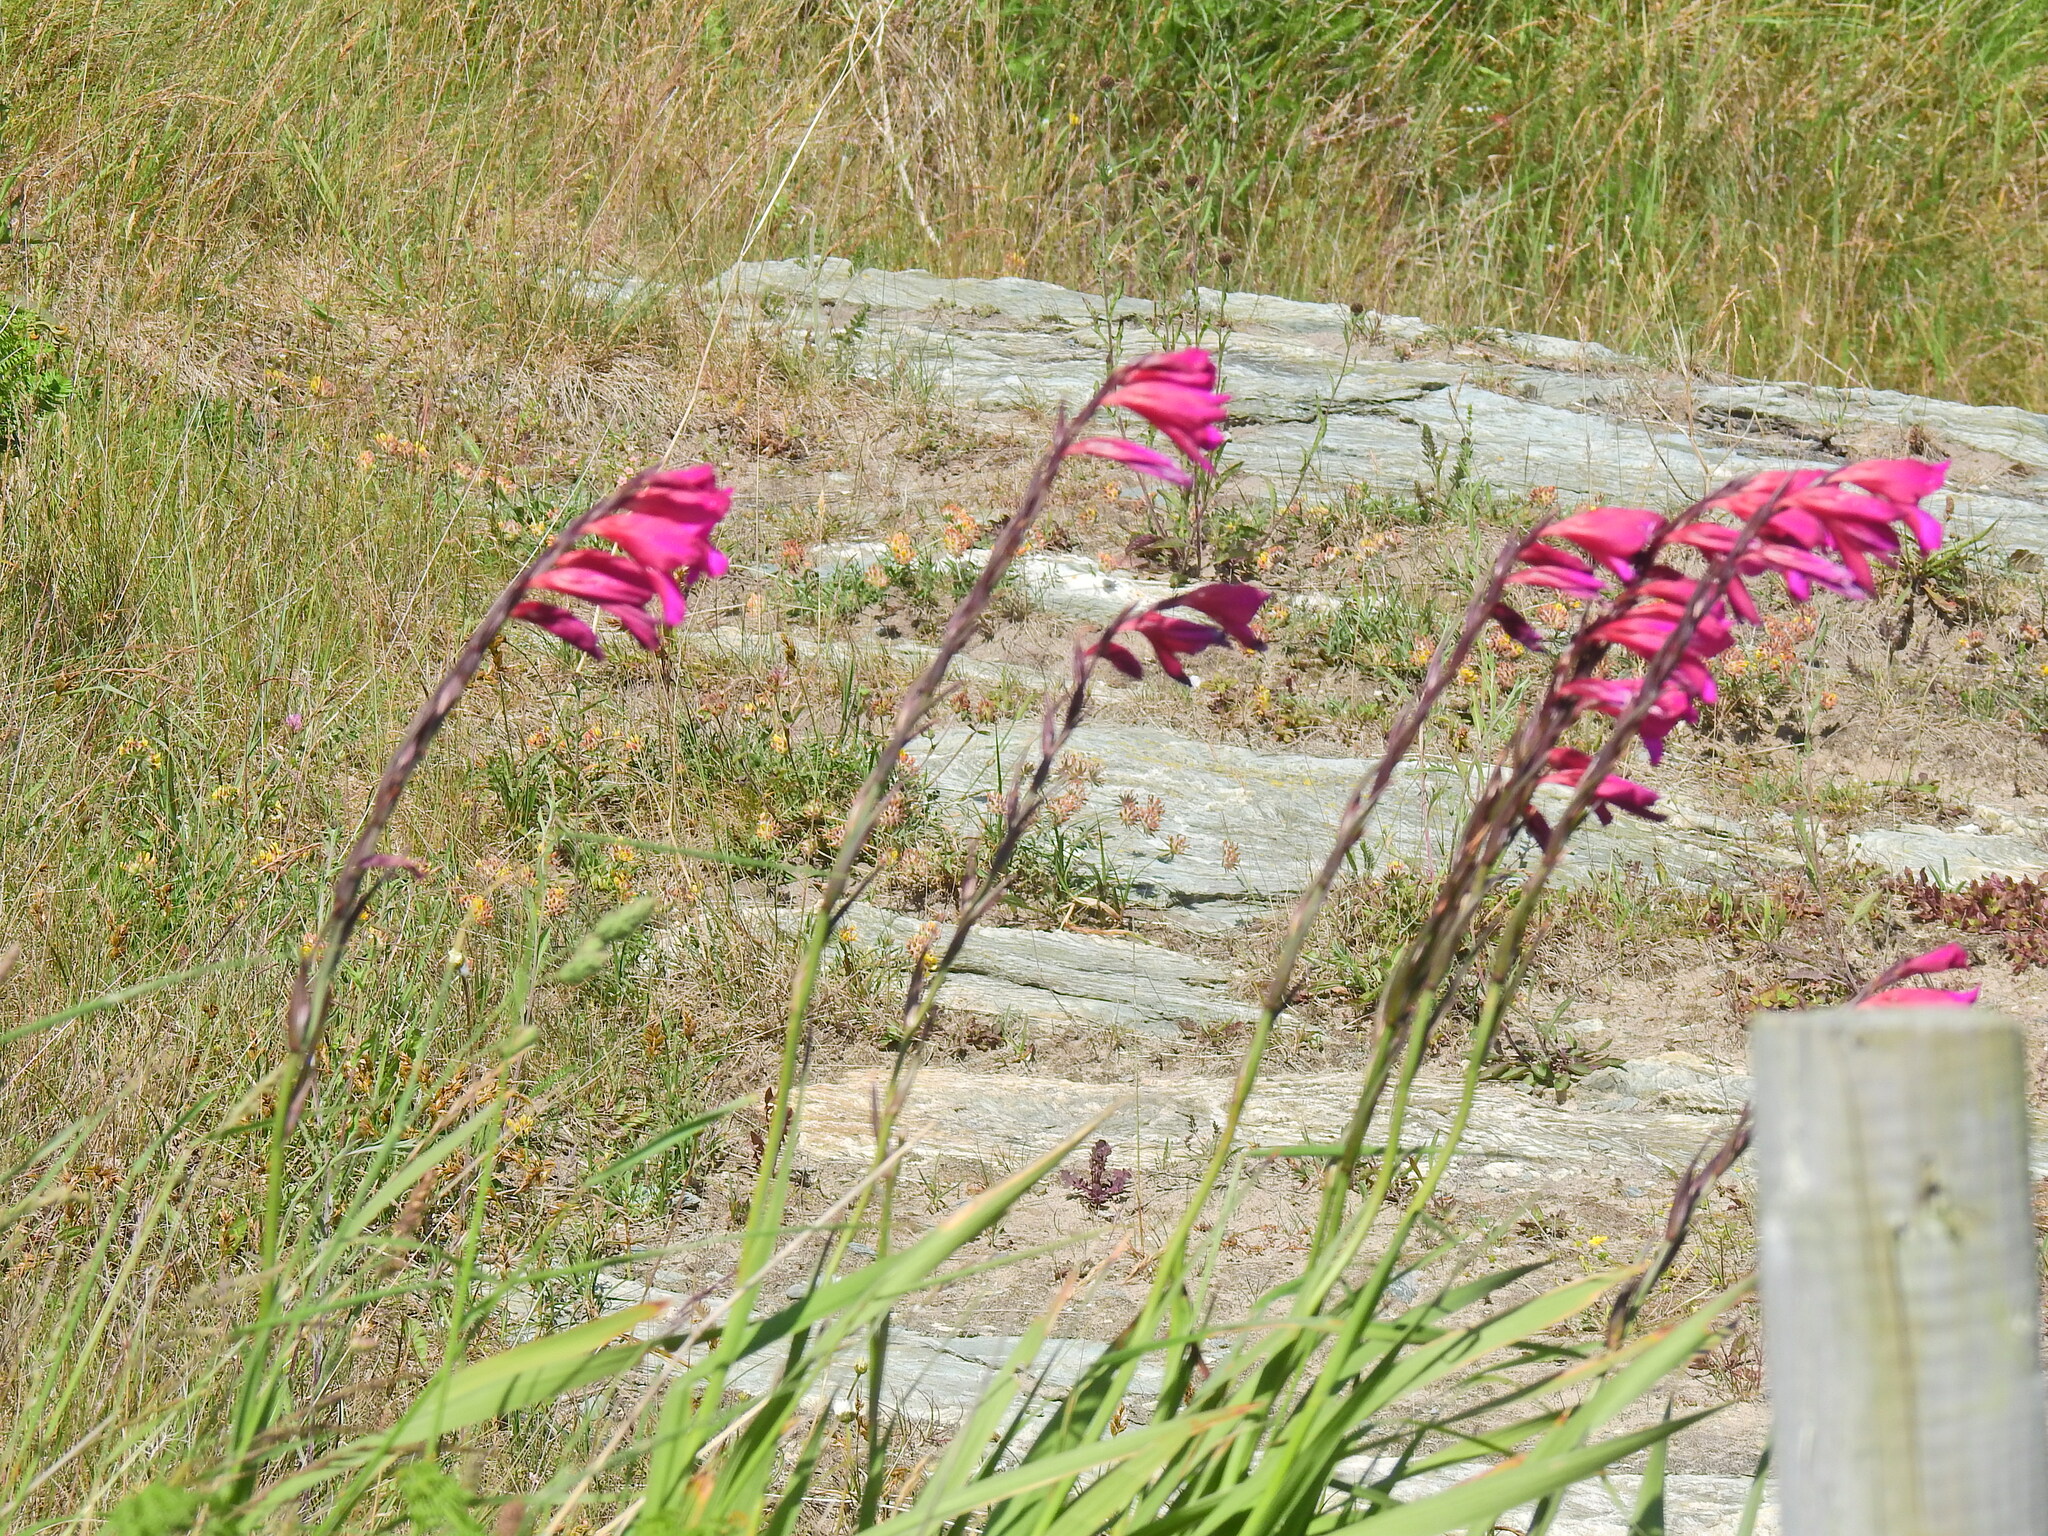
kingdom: Plantae
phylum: Tracheophyta
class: Liliopsida
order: Asparagales
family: Iridaceae
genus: Gladiolus
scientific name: Gladiolus communis
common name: Eastern gladiolus
